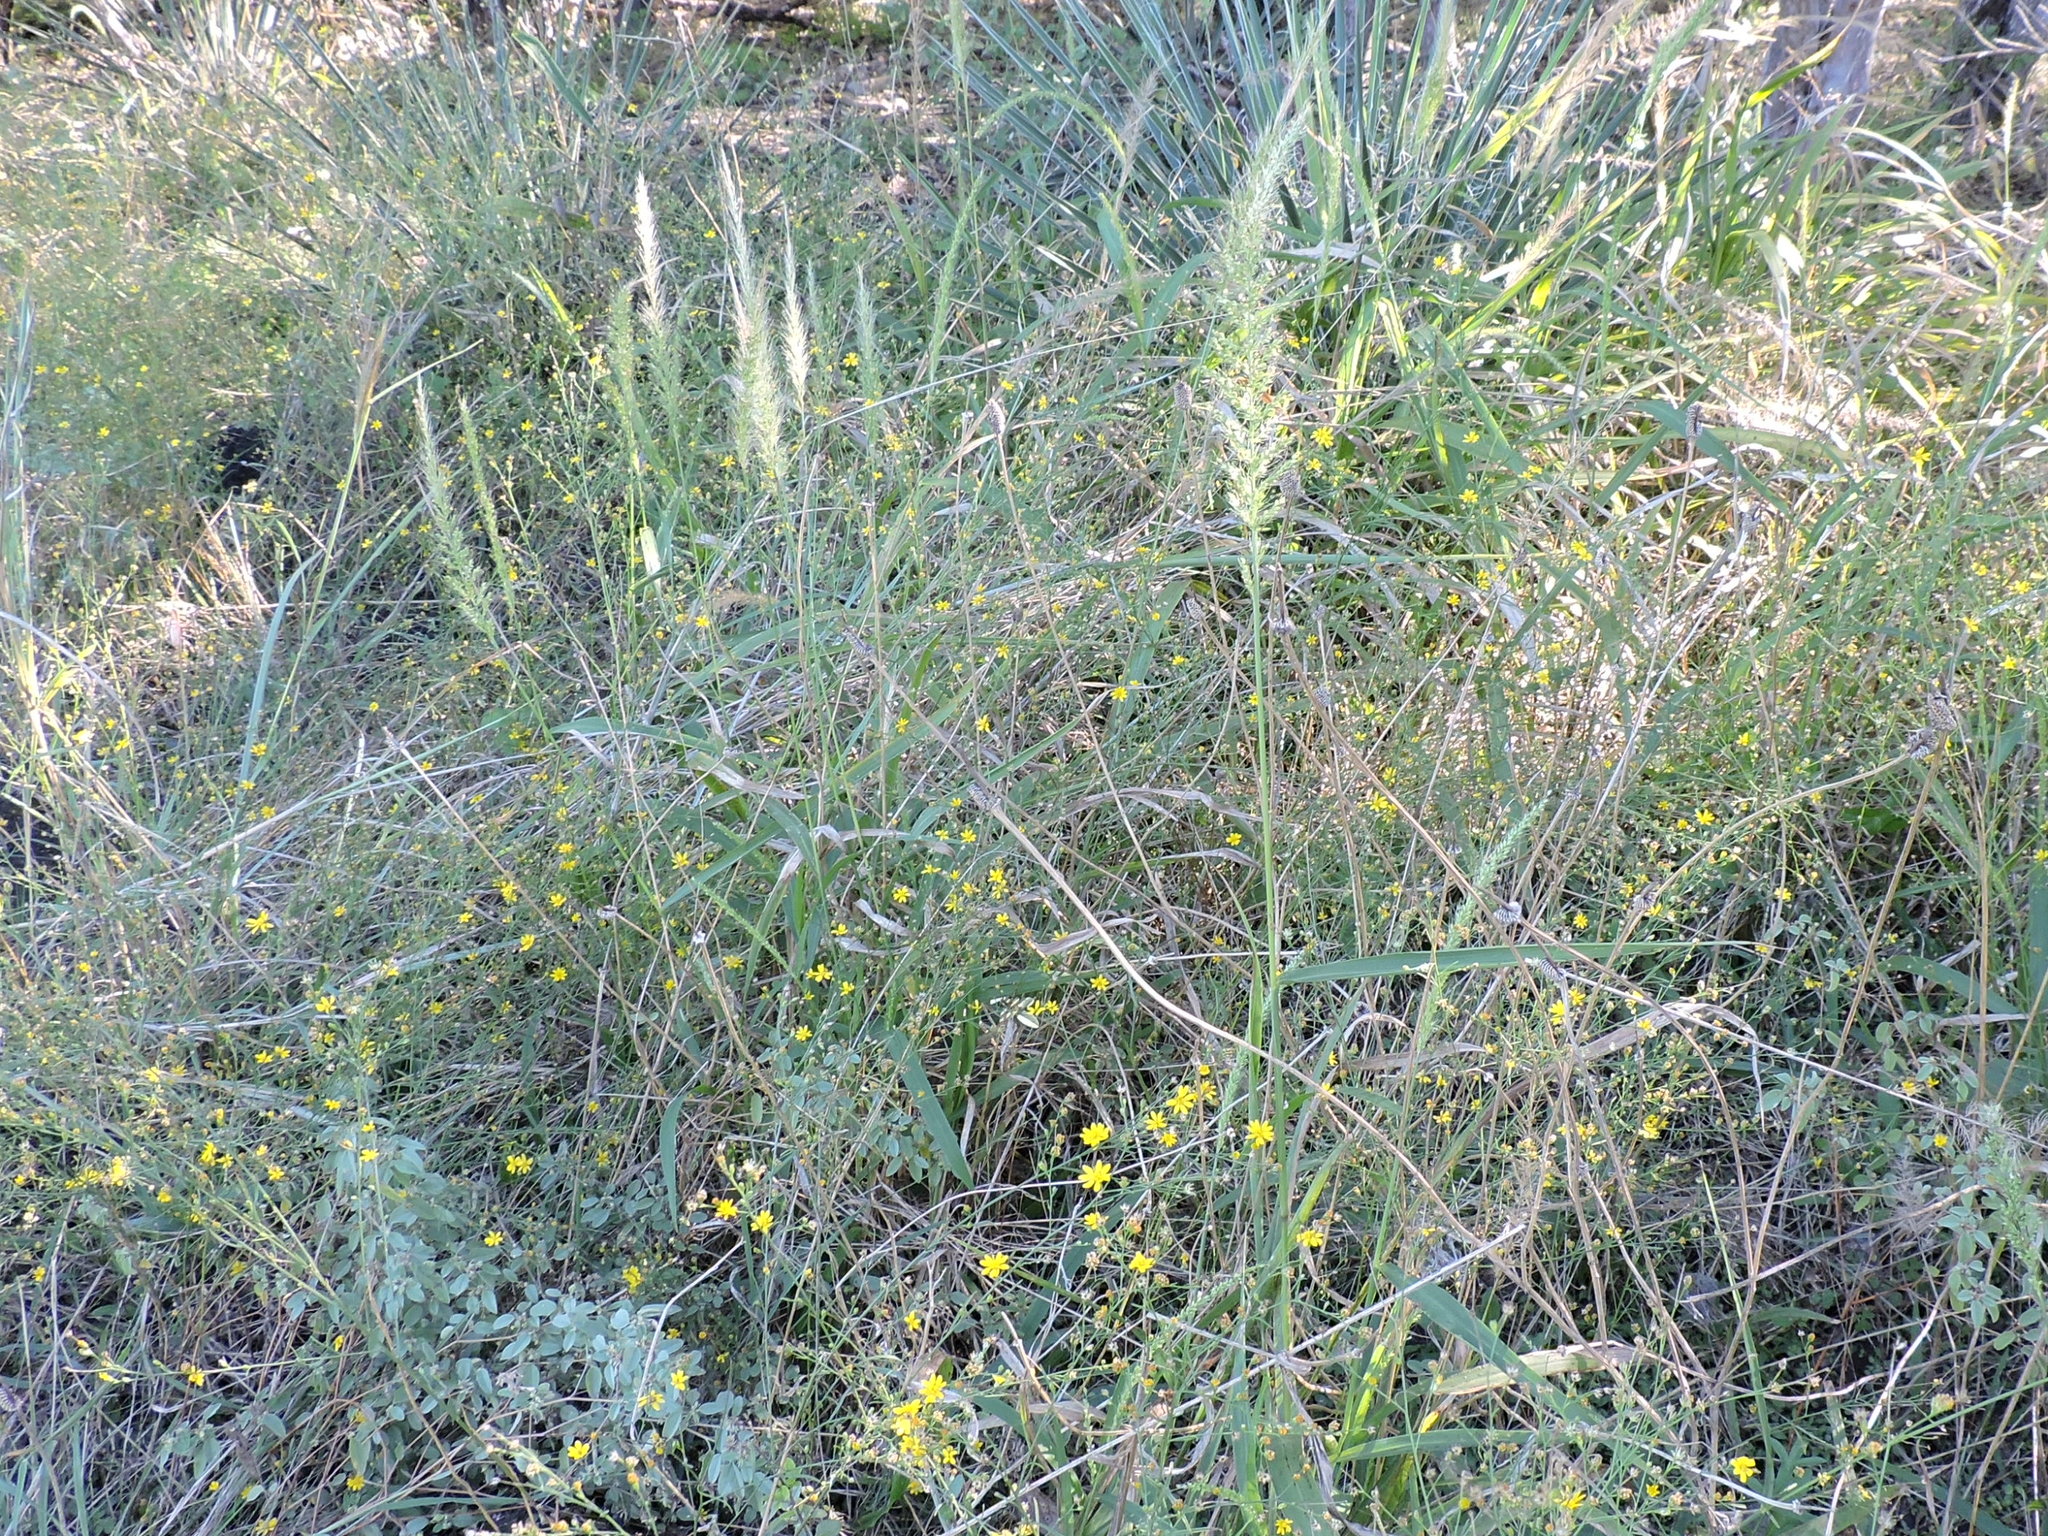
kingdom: Plantae
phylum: Tracheophyta
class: Liliopsida
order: Poales
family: Poaceae
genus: Setaria
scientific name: Setaria scheelei
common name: Southwestern bristle grass
